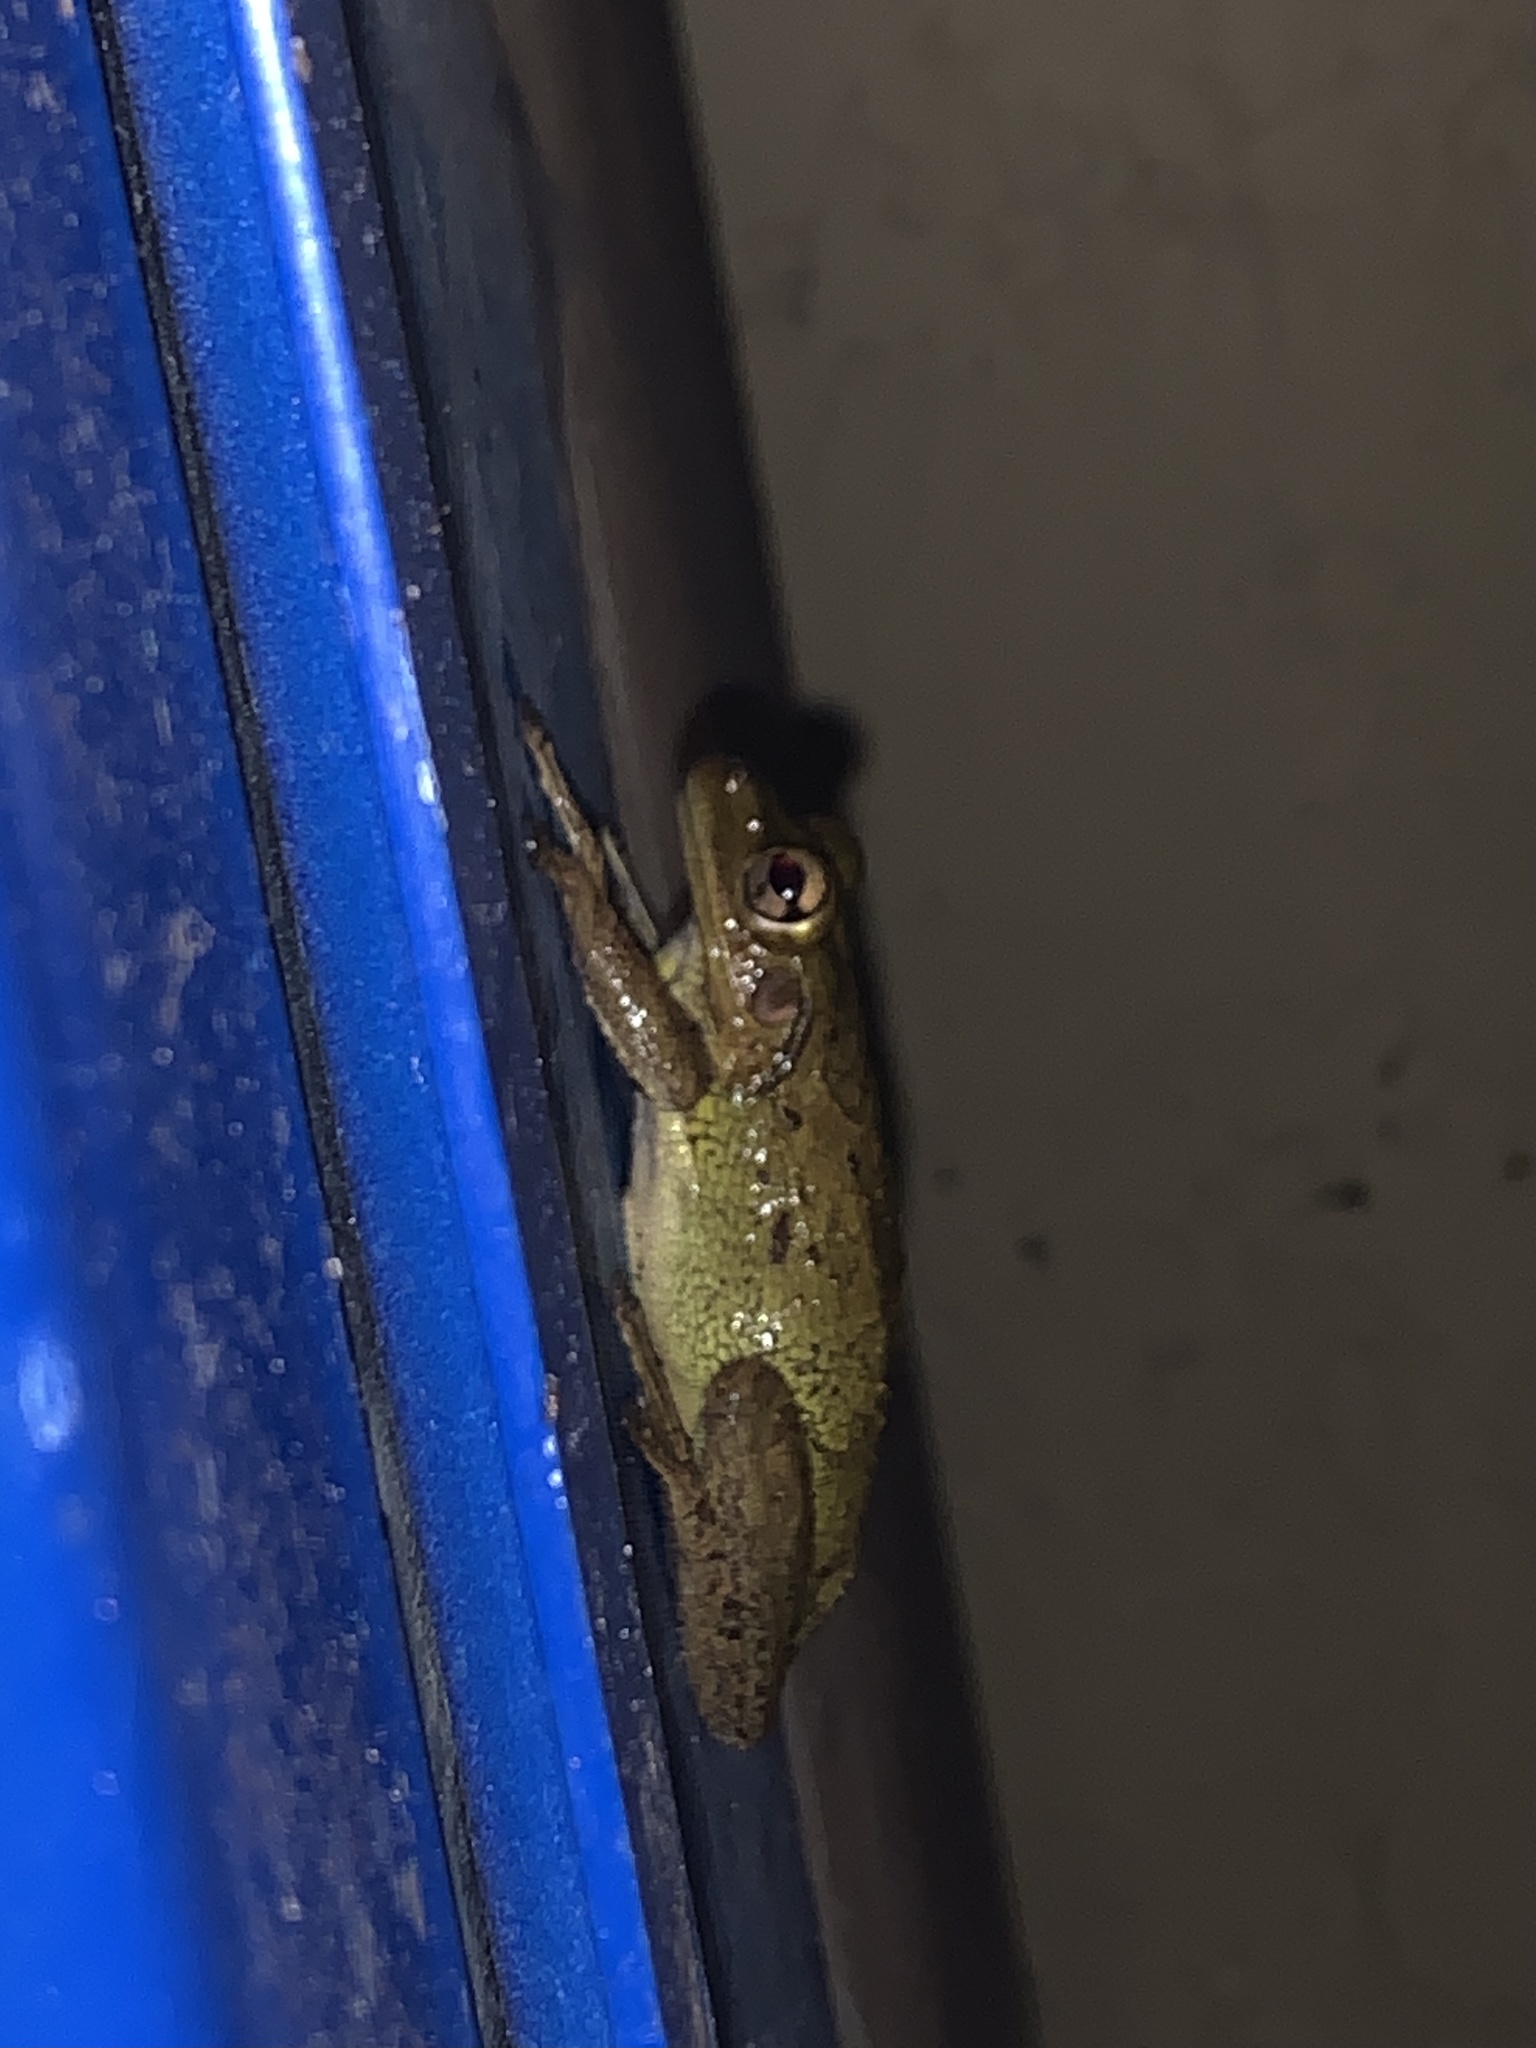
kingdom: Animalia
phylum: Chordata
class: Amphibia
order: Anura
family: Hylidae
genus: Osteopilus
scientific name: Osteopilus septentrionalis
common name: Cuban treefrog
